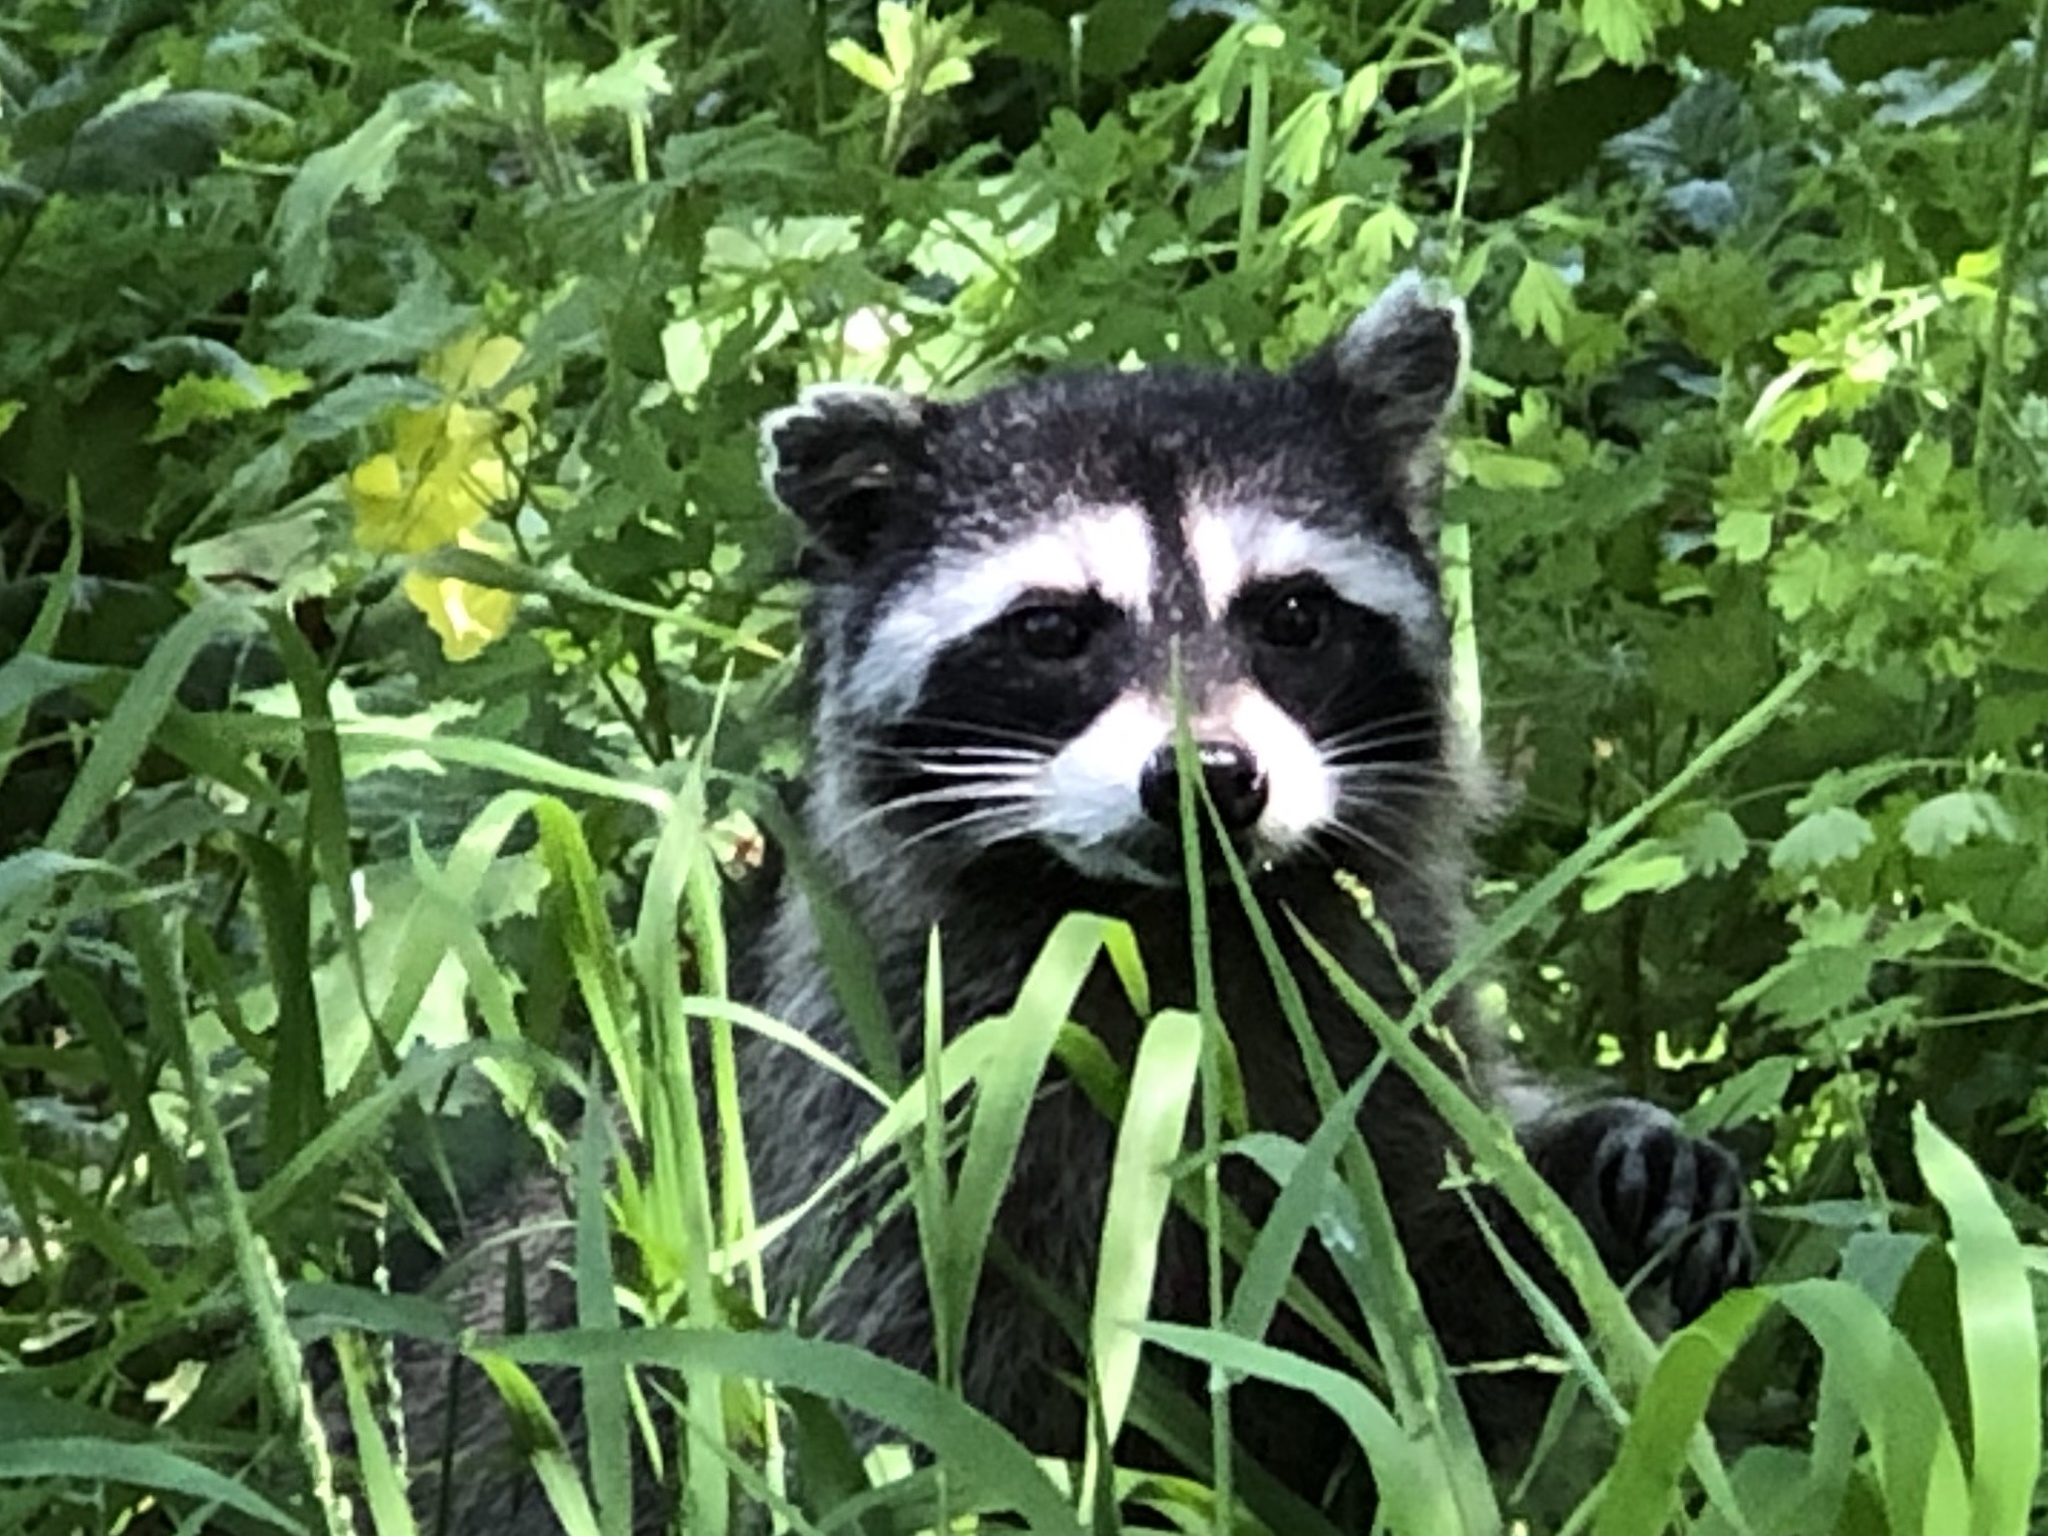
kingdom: Animalia
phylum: Chordata
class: Mammalia
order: Carnivora
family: Procyonidae
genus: Procyon
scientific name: Procyon lotor
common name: Raccoon
